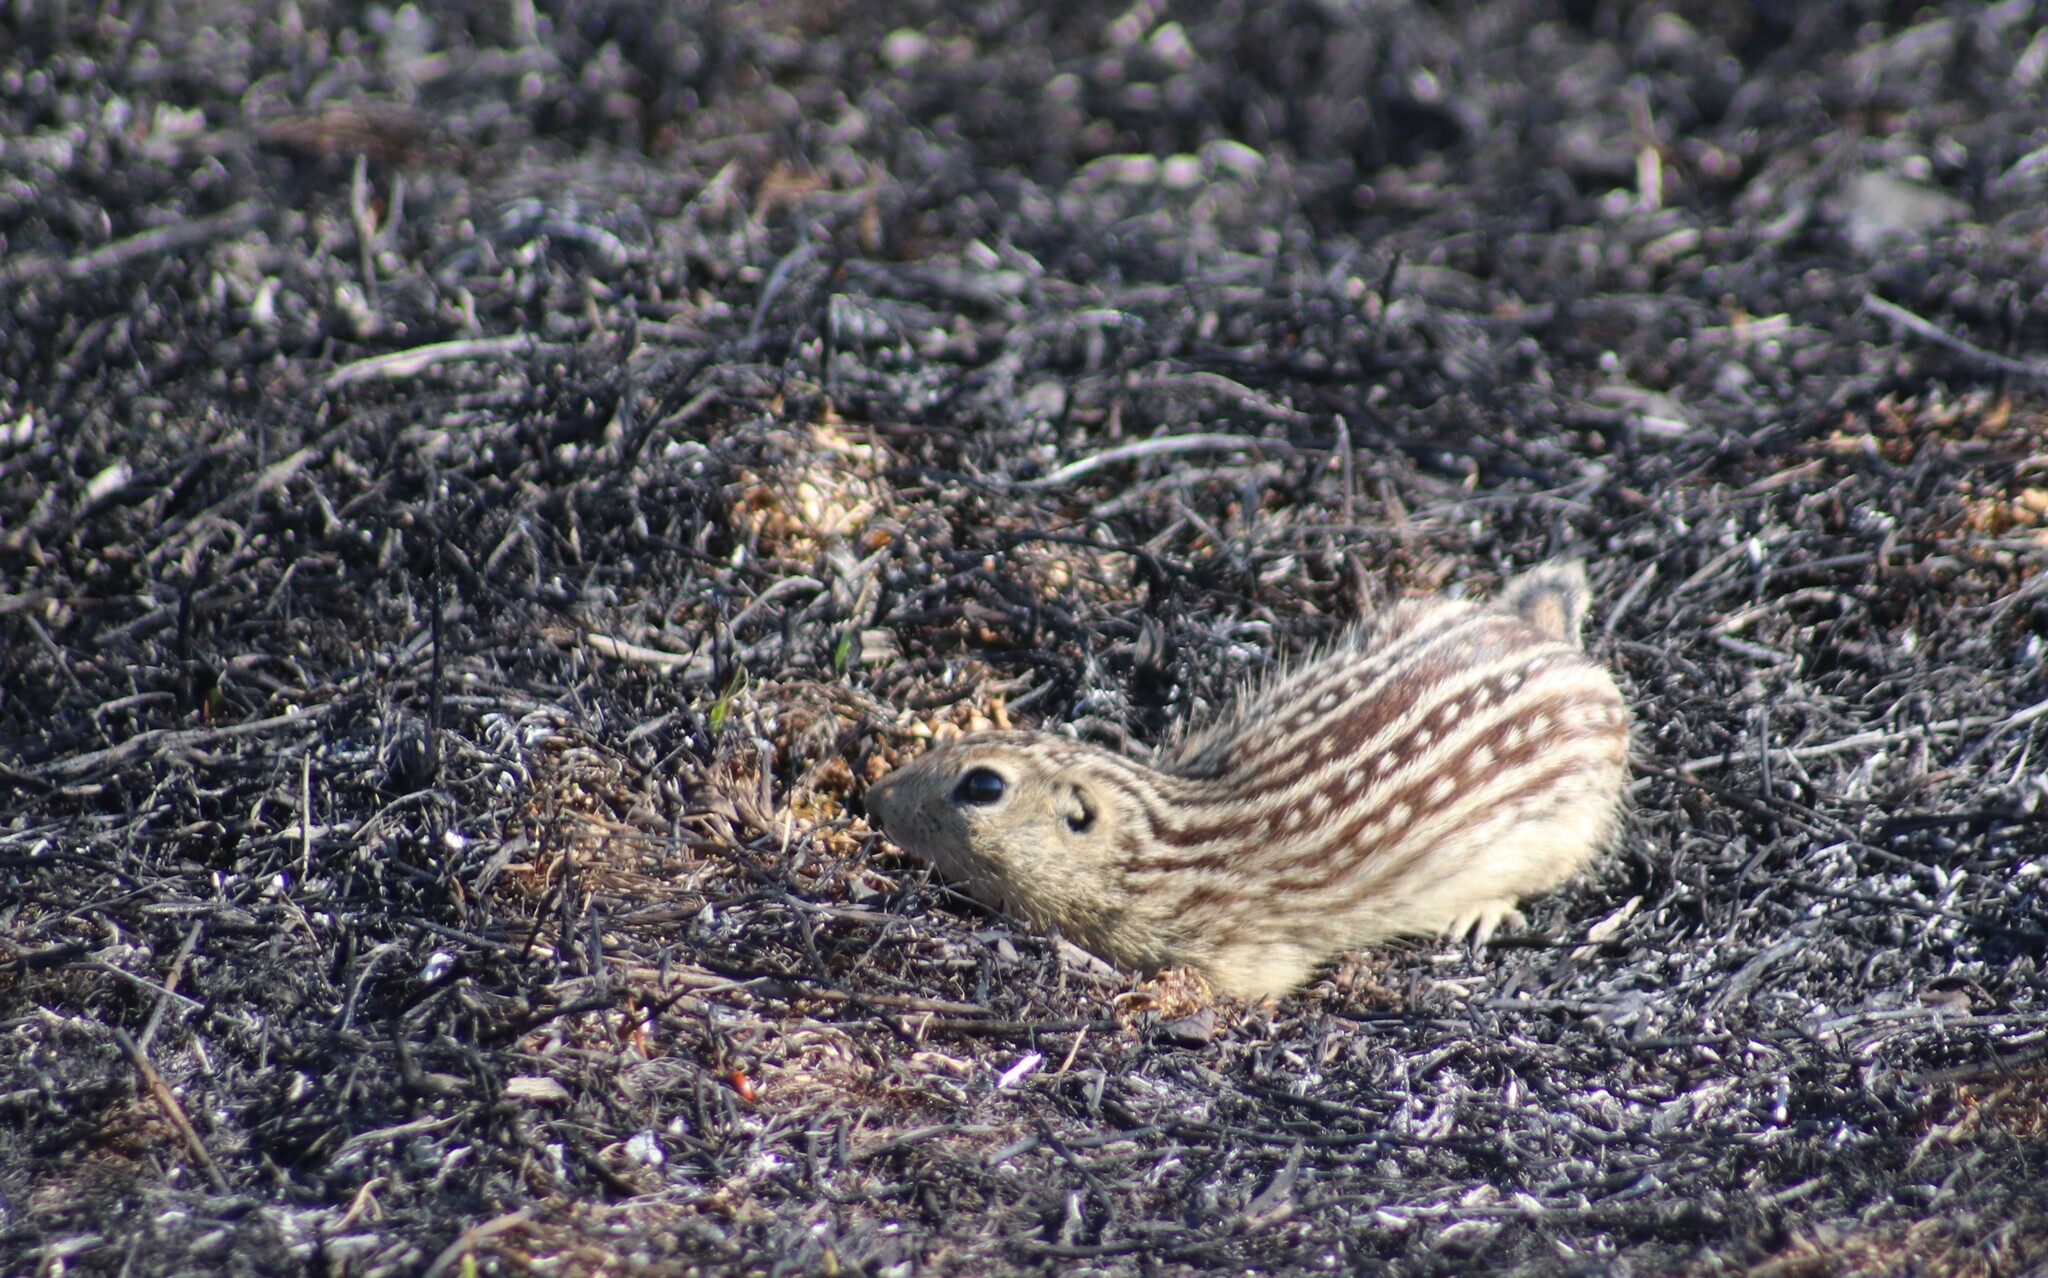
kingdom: Animalia
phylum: Chordata
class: Mammalia
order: Rodentia
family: Sciuridae
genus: Ictidomys
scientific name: Ictidomys tridecemlineatus
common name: Thirteen-lined ground squirrel
